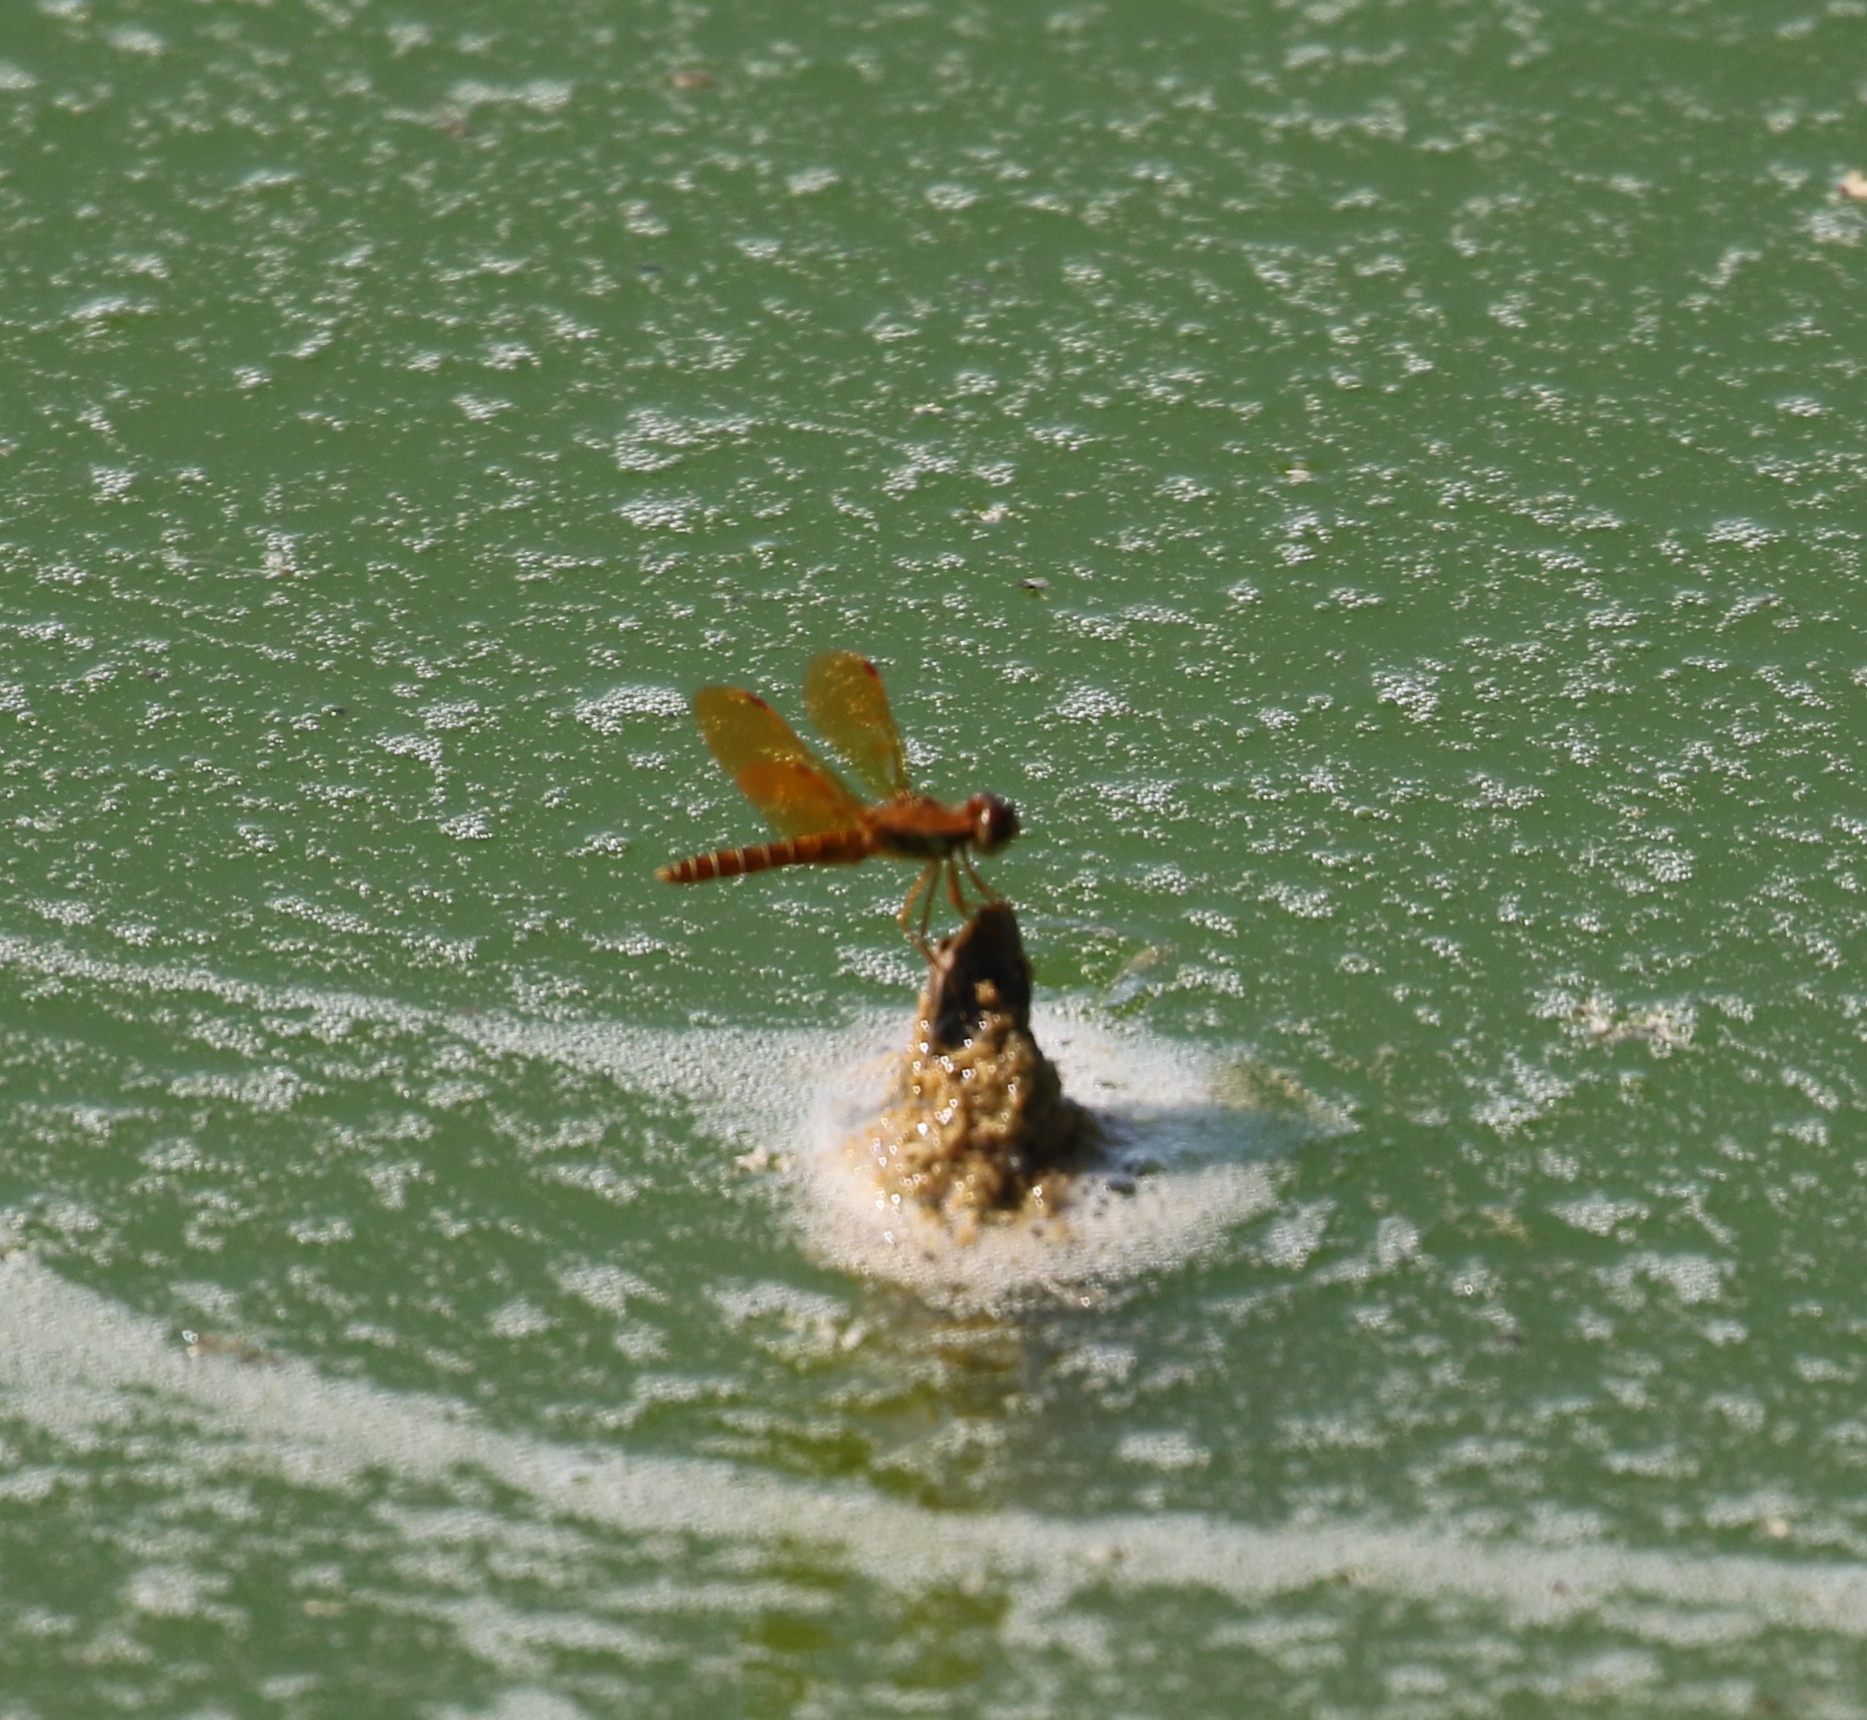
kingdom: Animalia
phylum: Arthropoda
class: Insecta
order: Odonata
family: Libellulidae
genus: Perithemis
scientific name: Perithemis tenera
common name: Eastern amberwing
